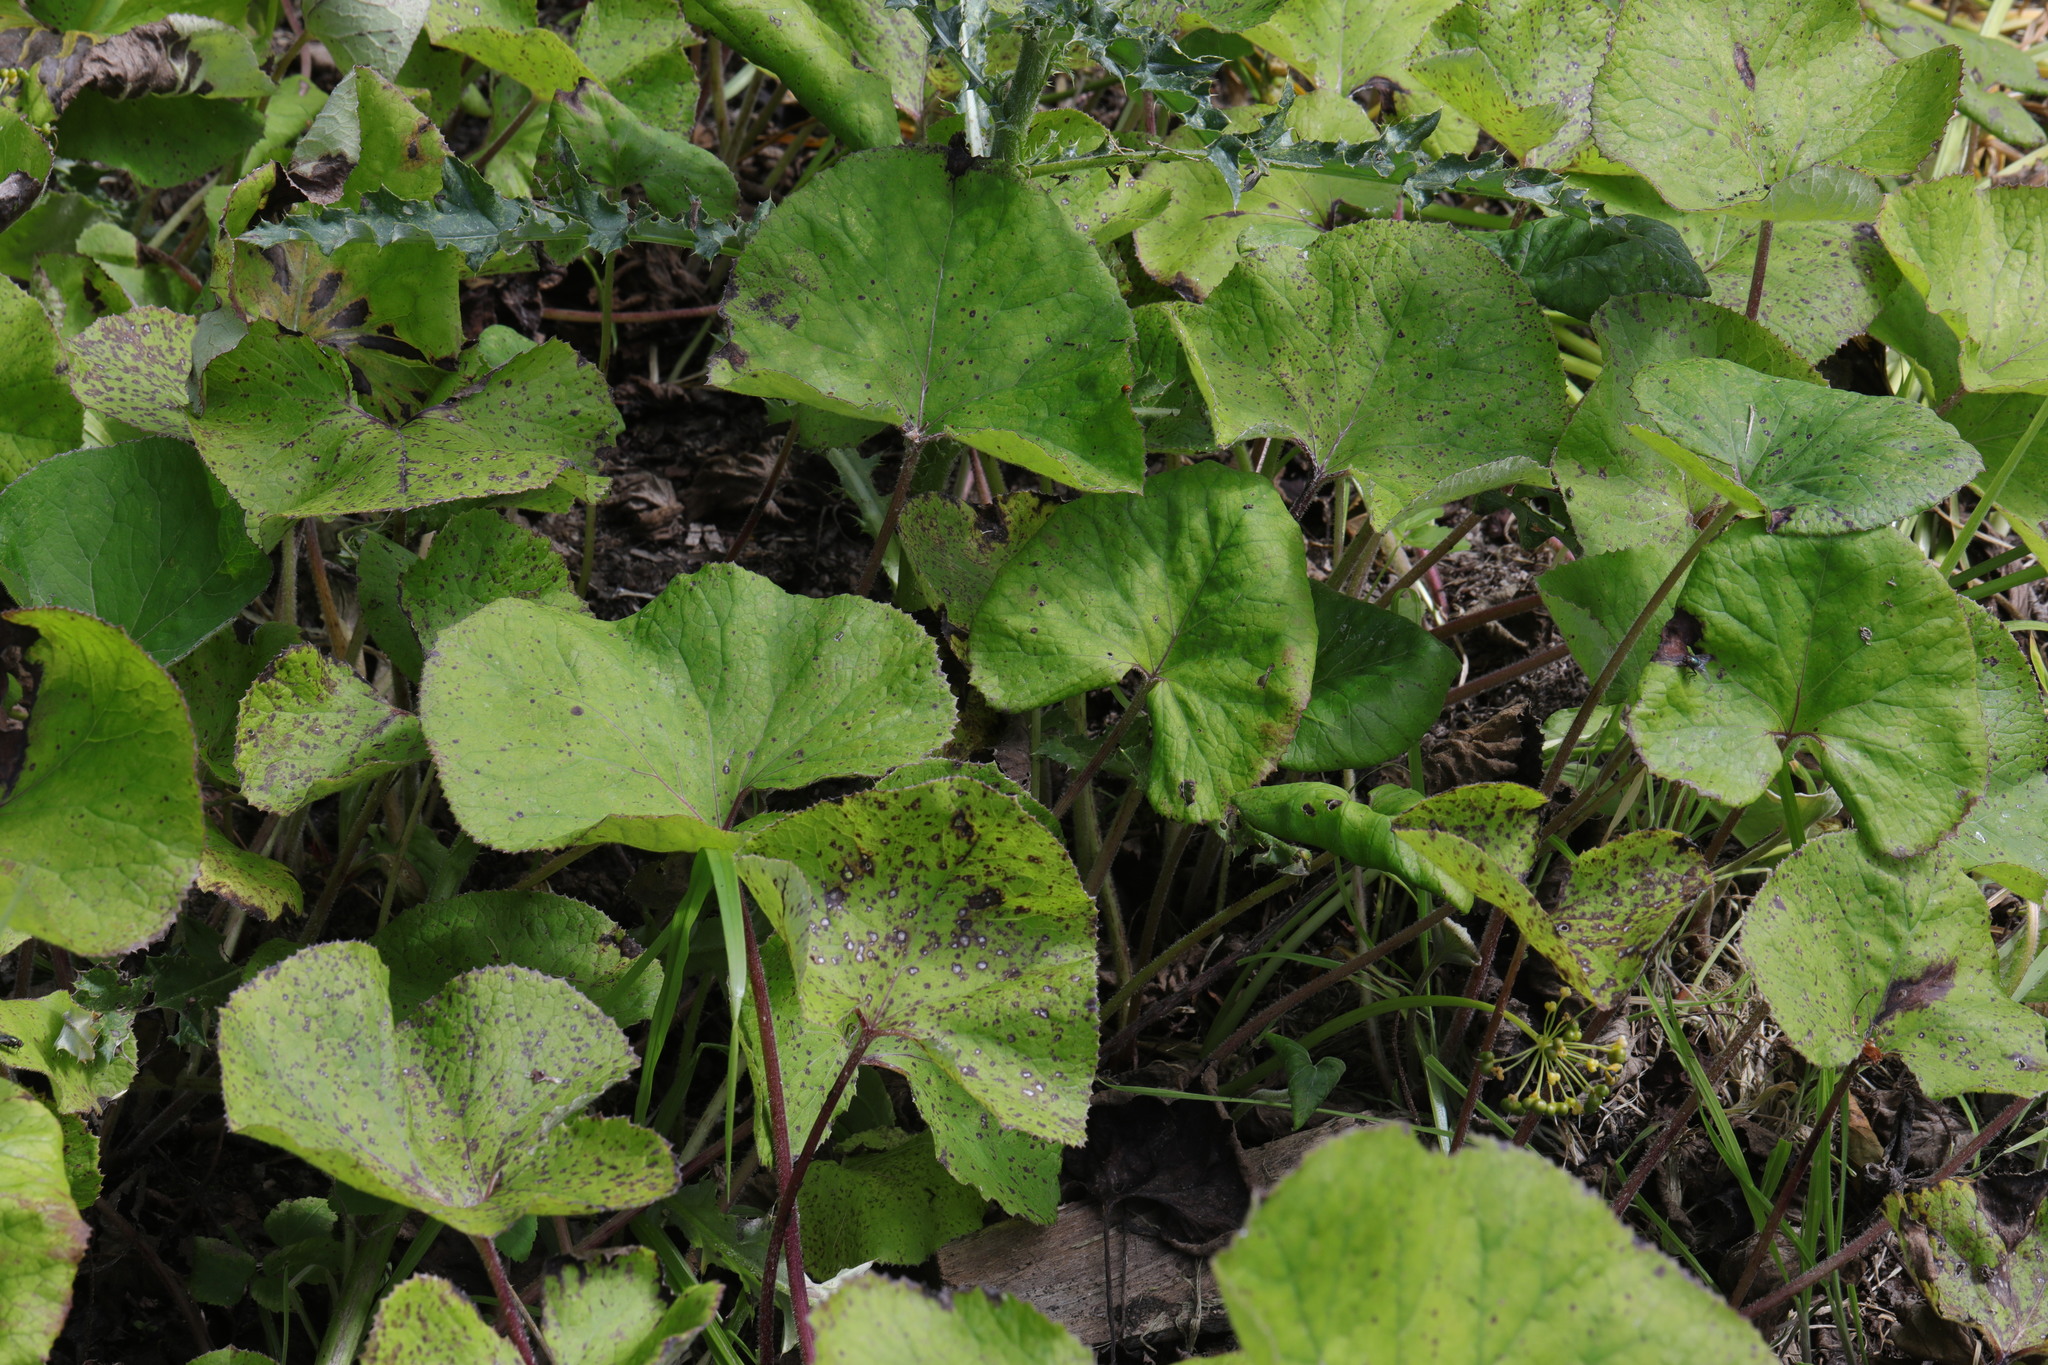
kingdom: Plantae
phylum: Tracheophyta
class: Magnoliopsida
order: Asterales
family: Asteraceae
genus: Petasites
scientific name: Petasites pyrenaicus
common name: Winter heliotrope
